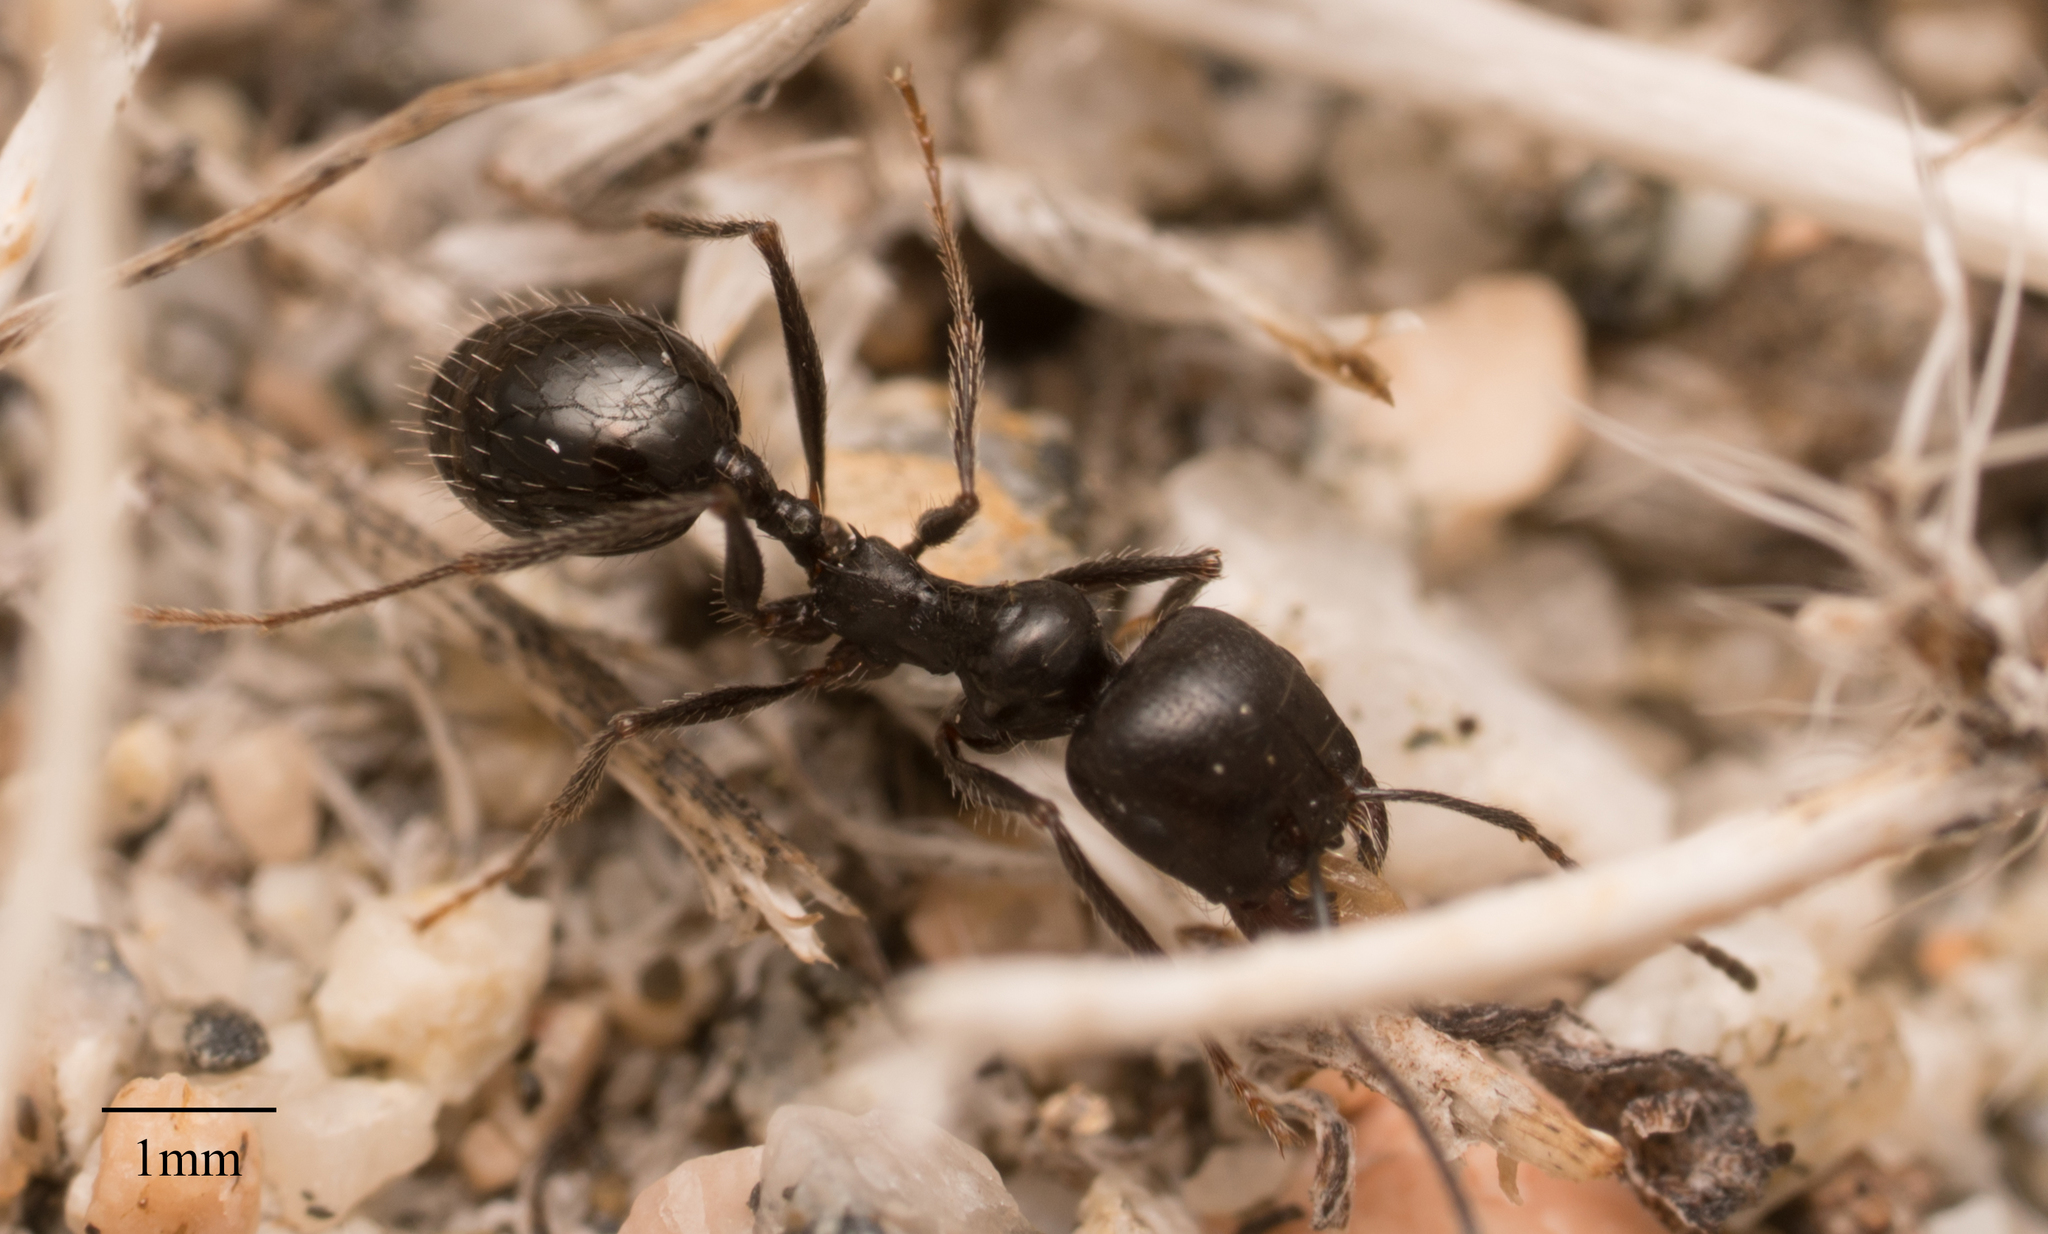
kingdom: Animalia
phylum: Arthropoda
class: Insecta
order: Hymenoptera
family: Formicidae
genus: Messor
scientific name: Messor pergandei
